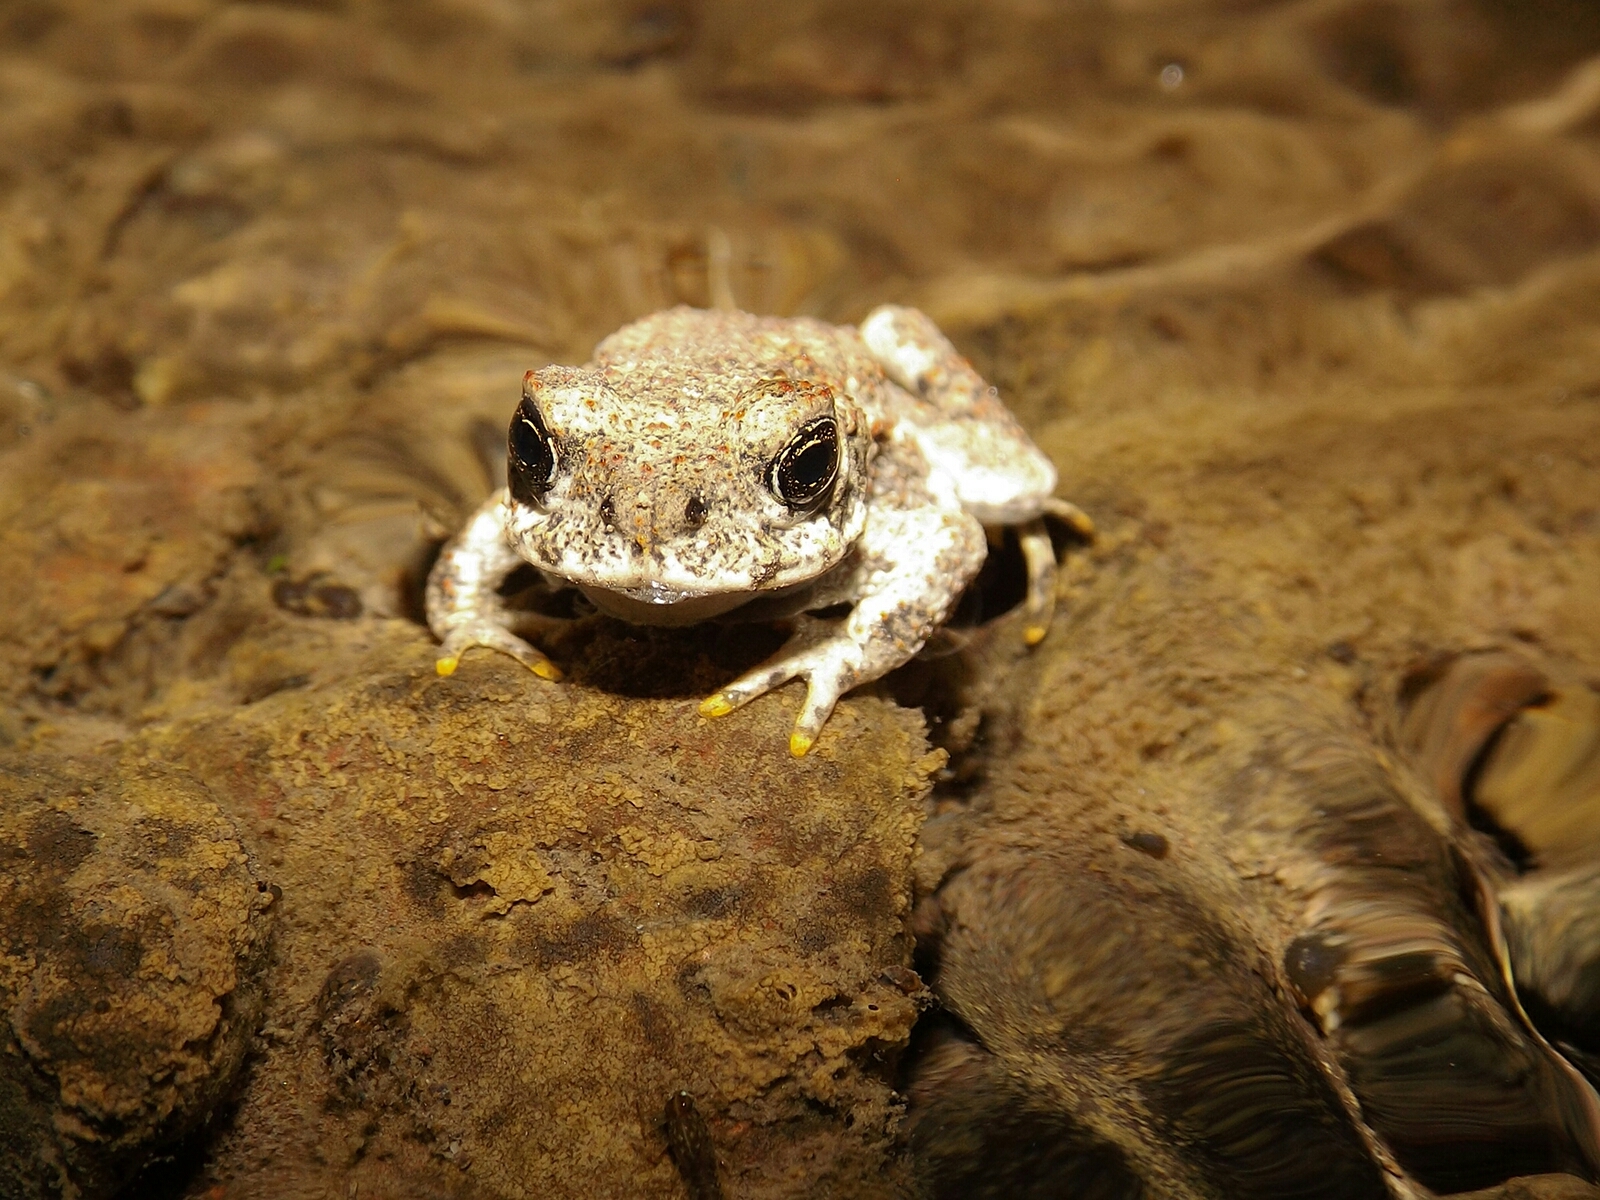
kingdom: Animalia
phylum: Chordata
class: Amphibia
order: Anura
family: Bufonidae
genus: Rhinella
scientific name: Rhinella arunco
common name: Concepcion toad
